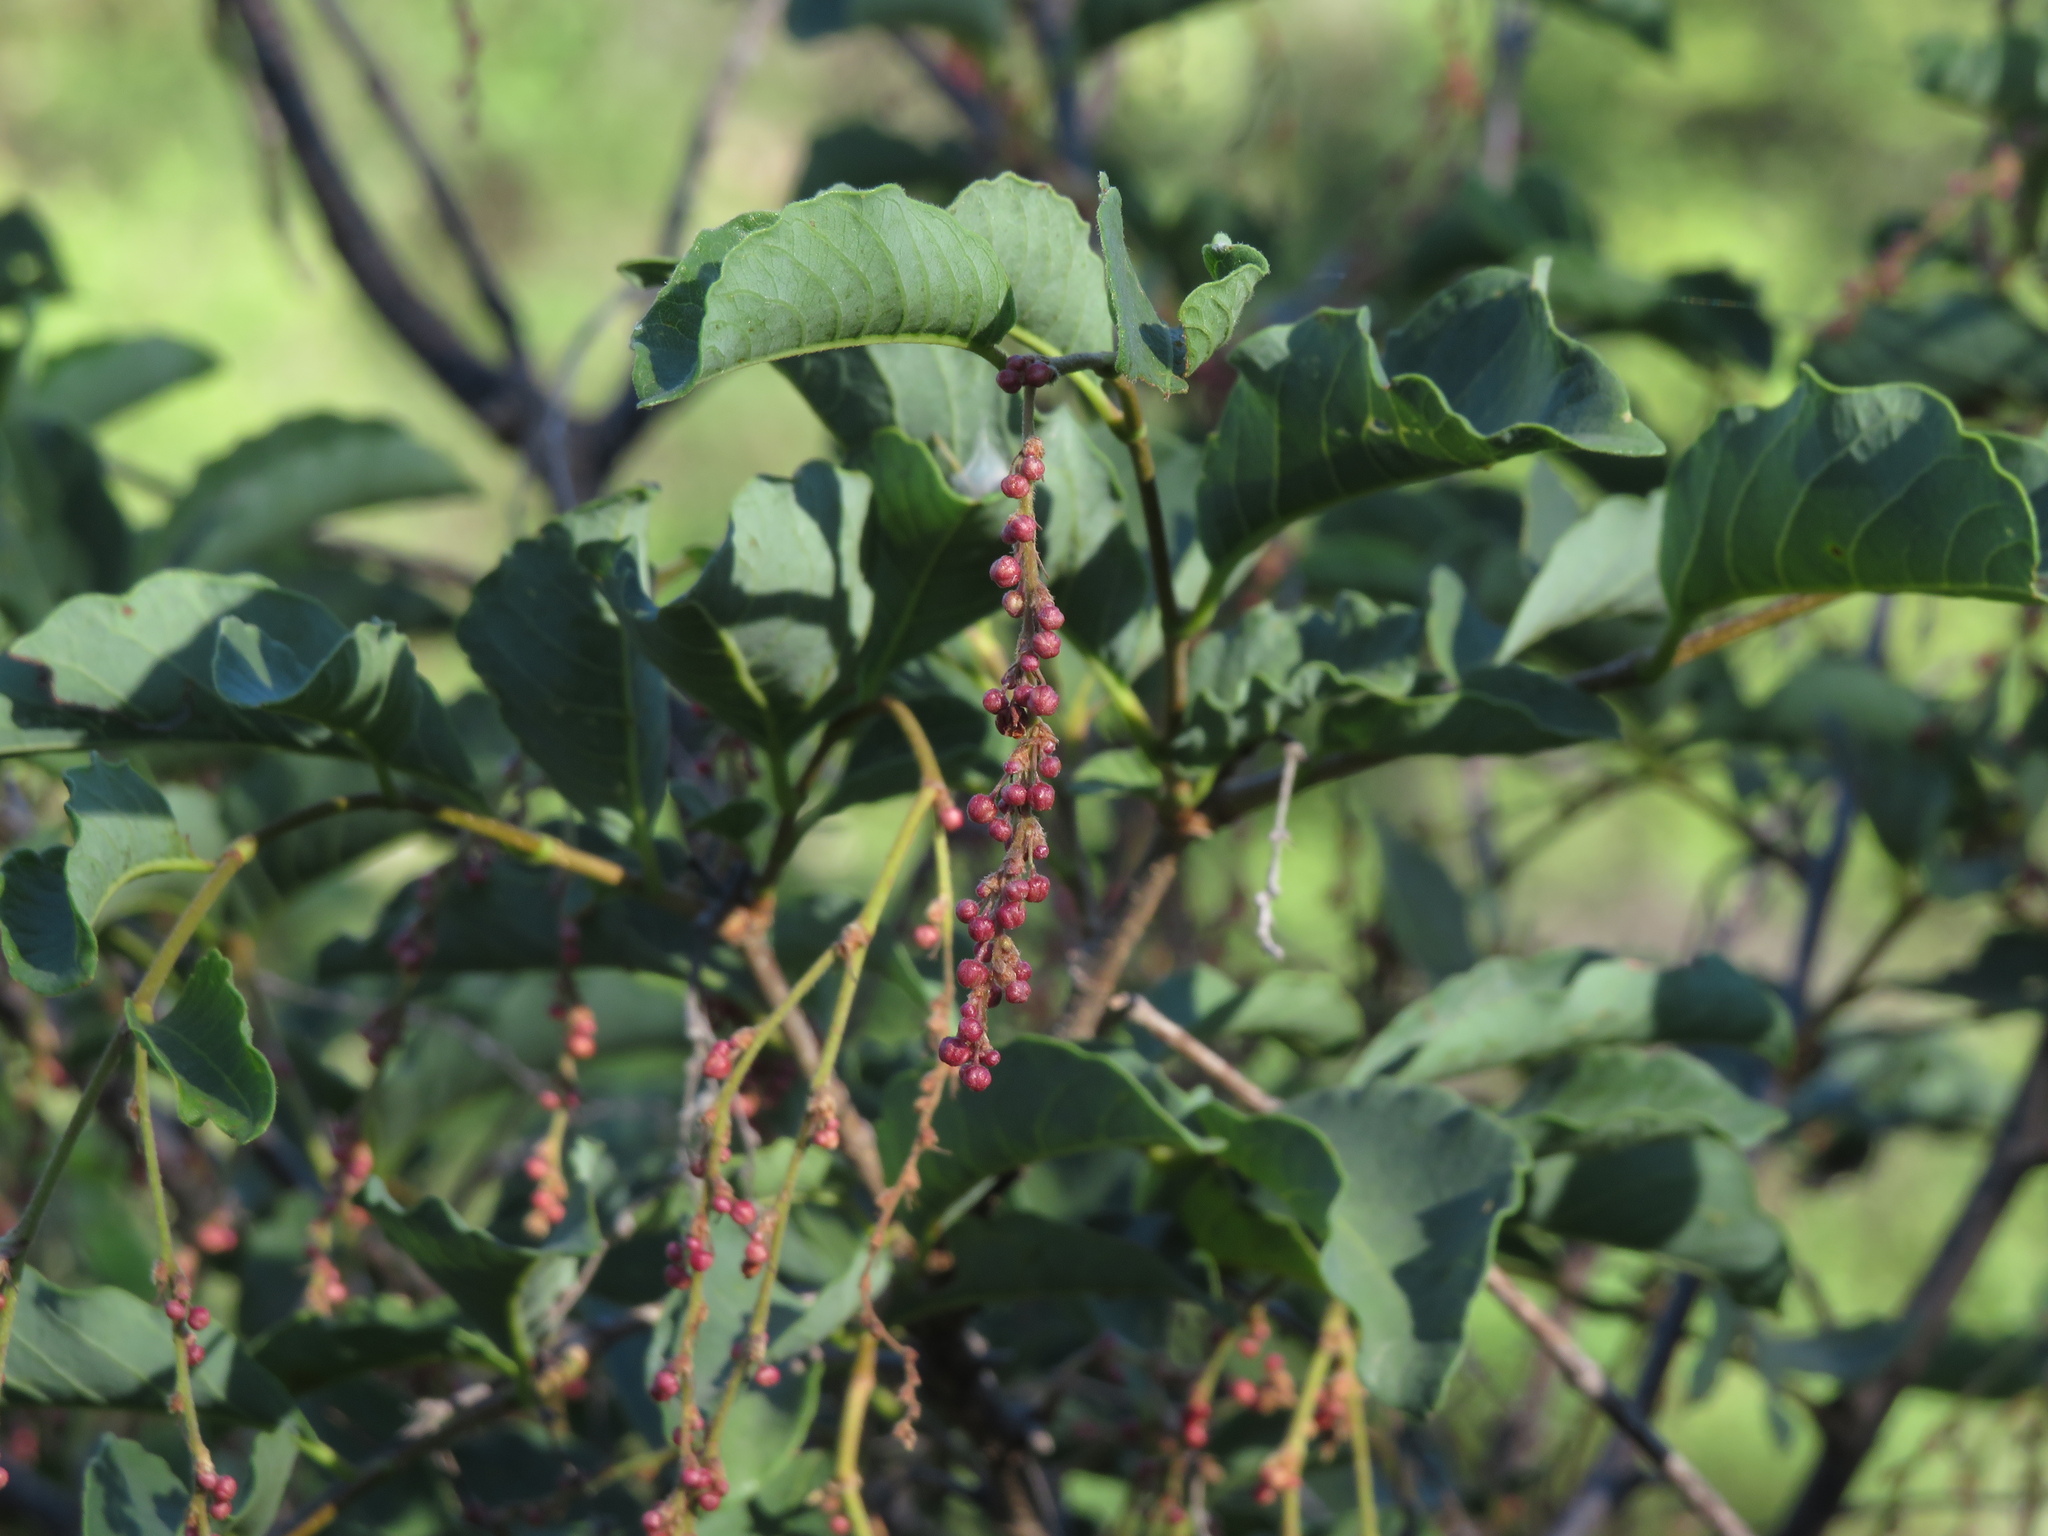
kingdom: Plantae
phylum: Tracheophyta
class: Magnoliopsida
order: Caryophyllales
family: Polygonaceae
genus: Ruprechtia
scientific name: Ruprechtia apetala
